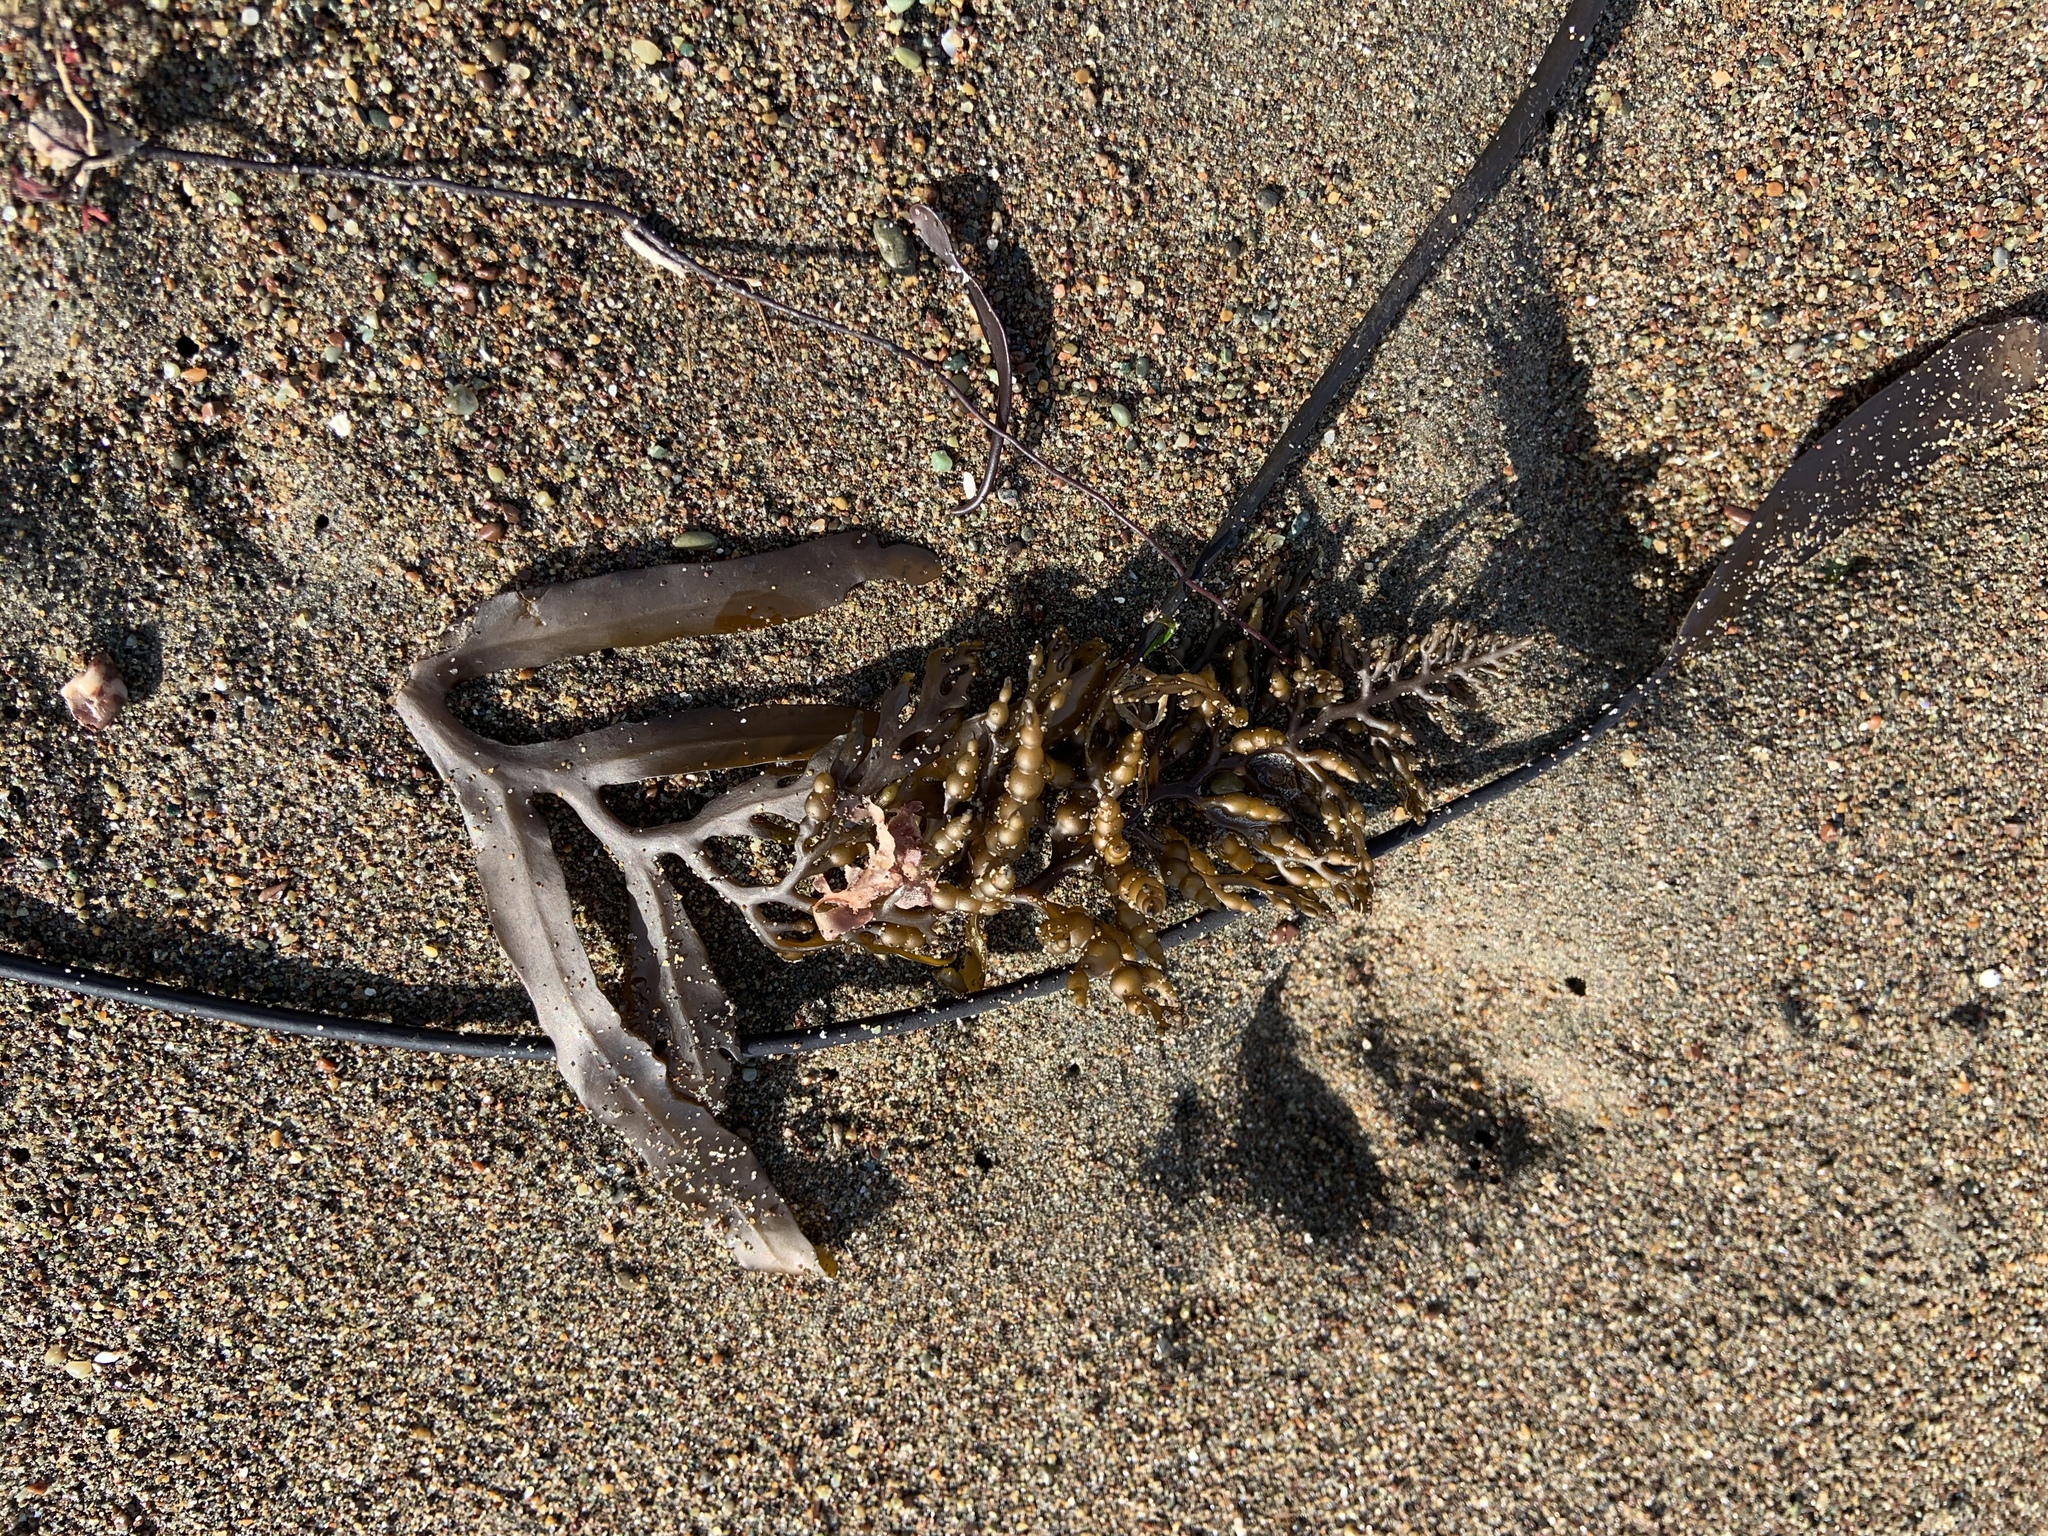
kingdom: Chromista
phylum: Ochrophyta
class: Phaeophyceae
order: Fucales
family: Sargassaceae
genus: Stephanocystis
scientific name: Stephanocystis
